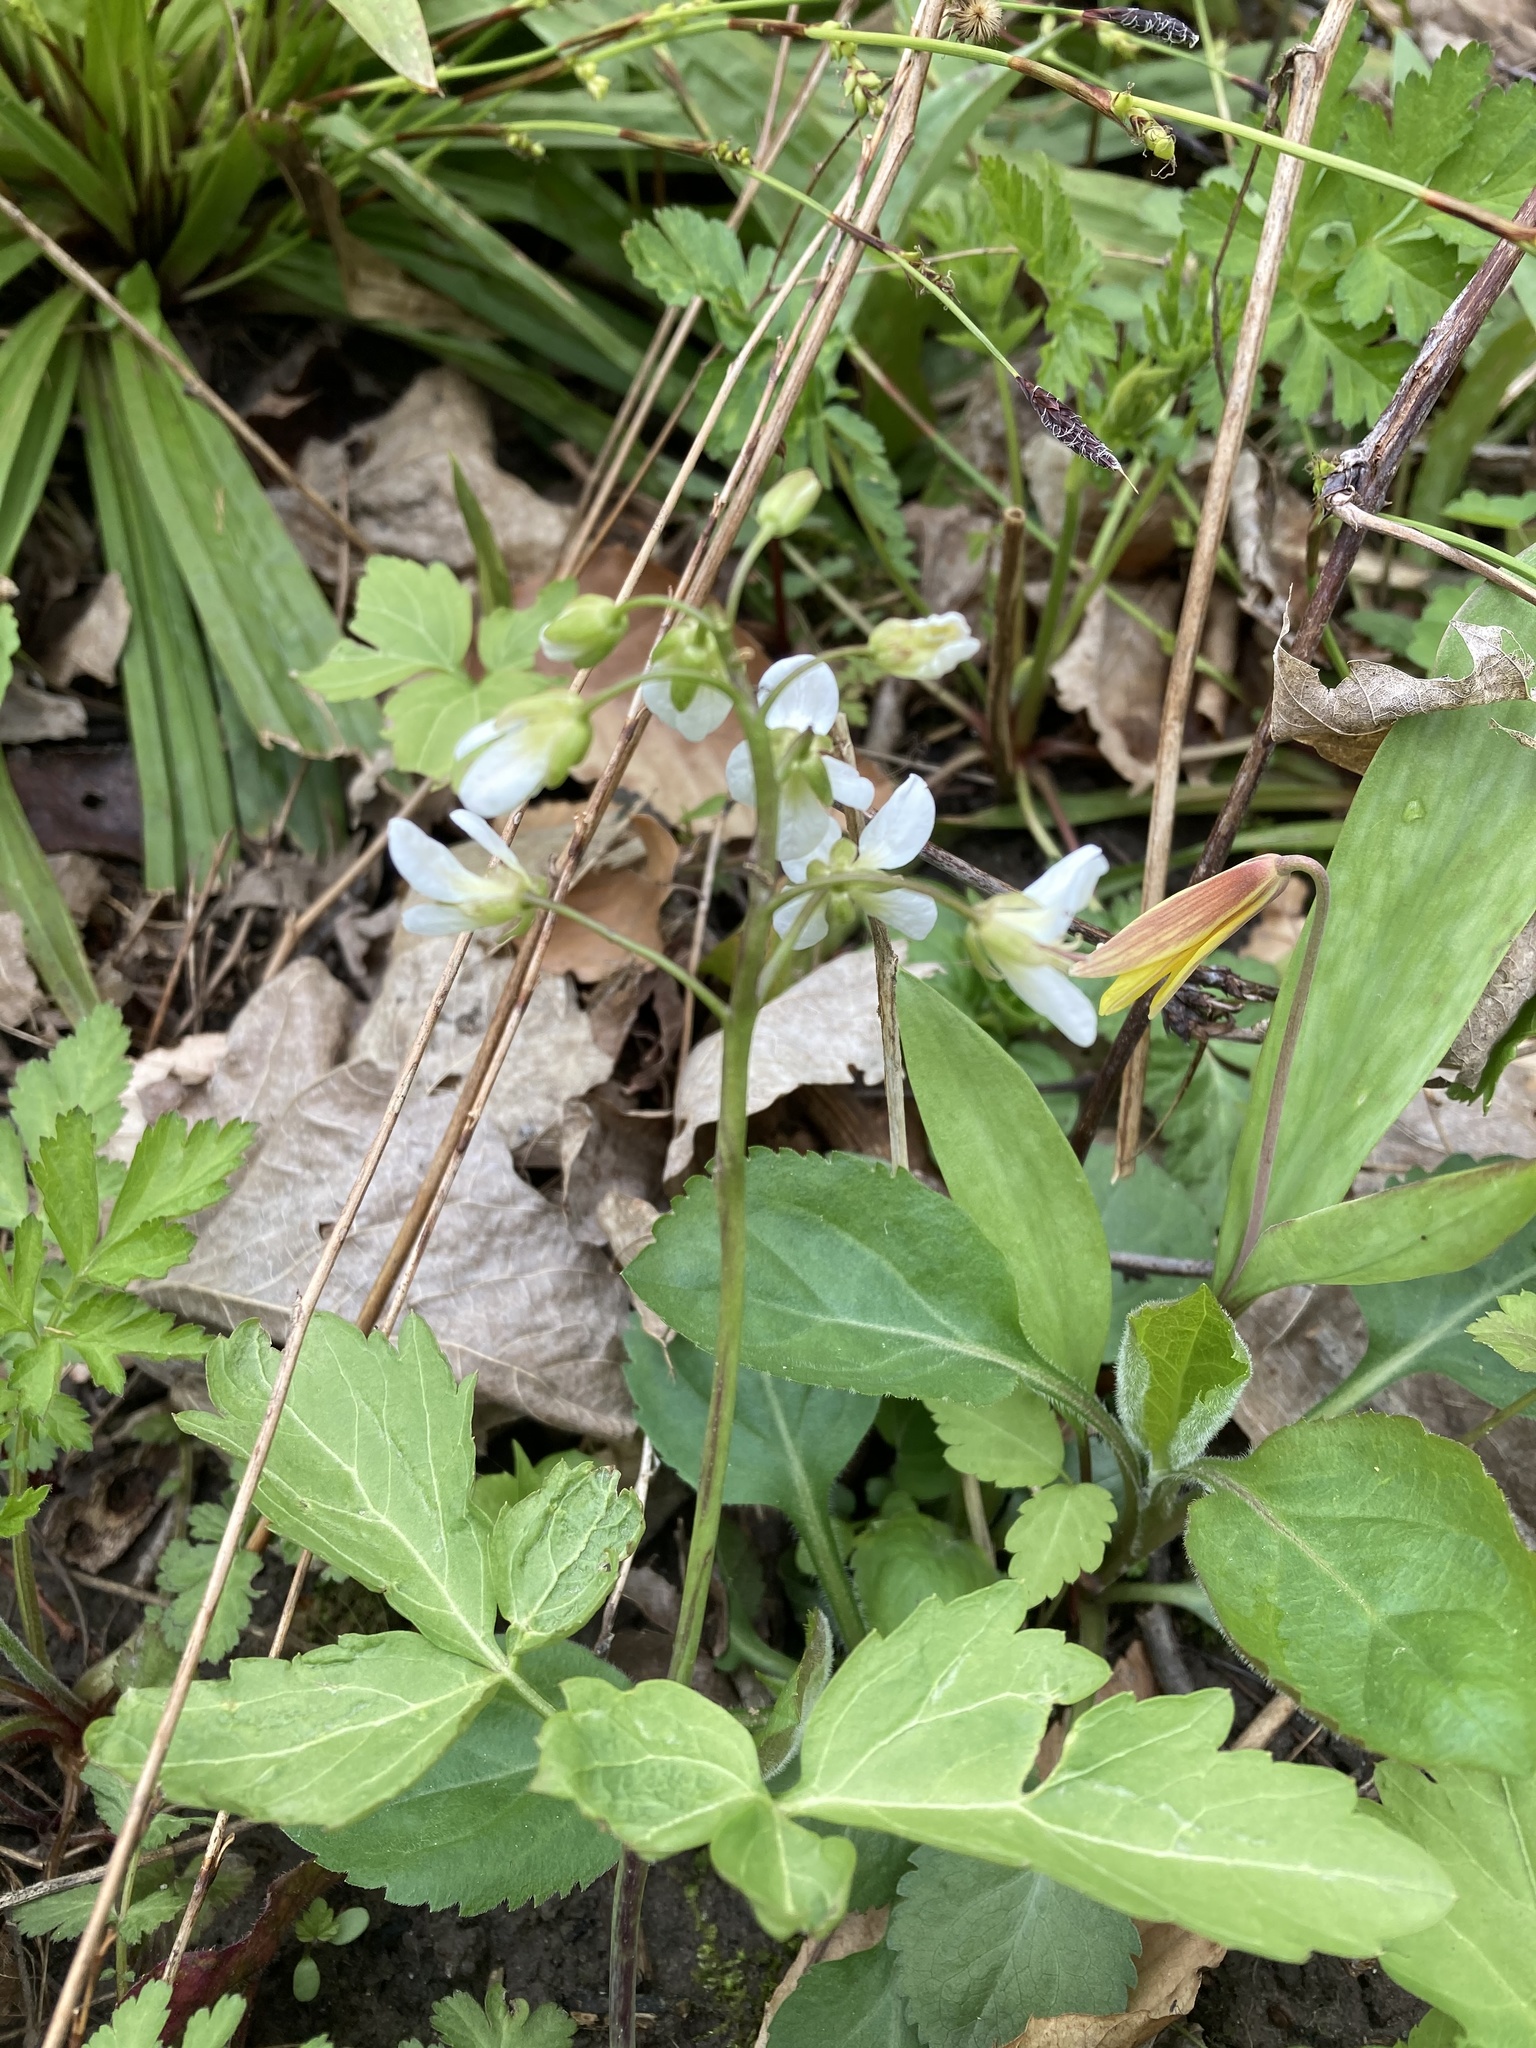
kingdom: Plantae
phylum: Tracheophyta
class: Magnoliopsida
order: Brassicales
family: Brassicaceae
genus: Cardamine
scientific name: Cardamine diphylla
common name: Broad-leaved toothwort
